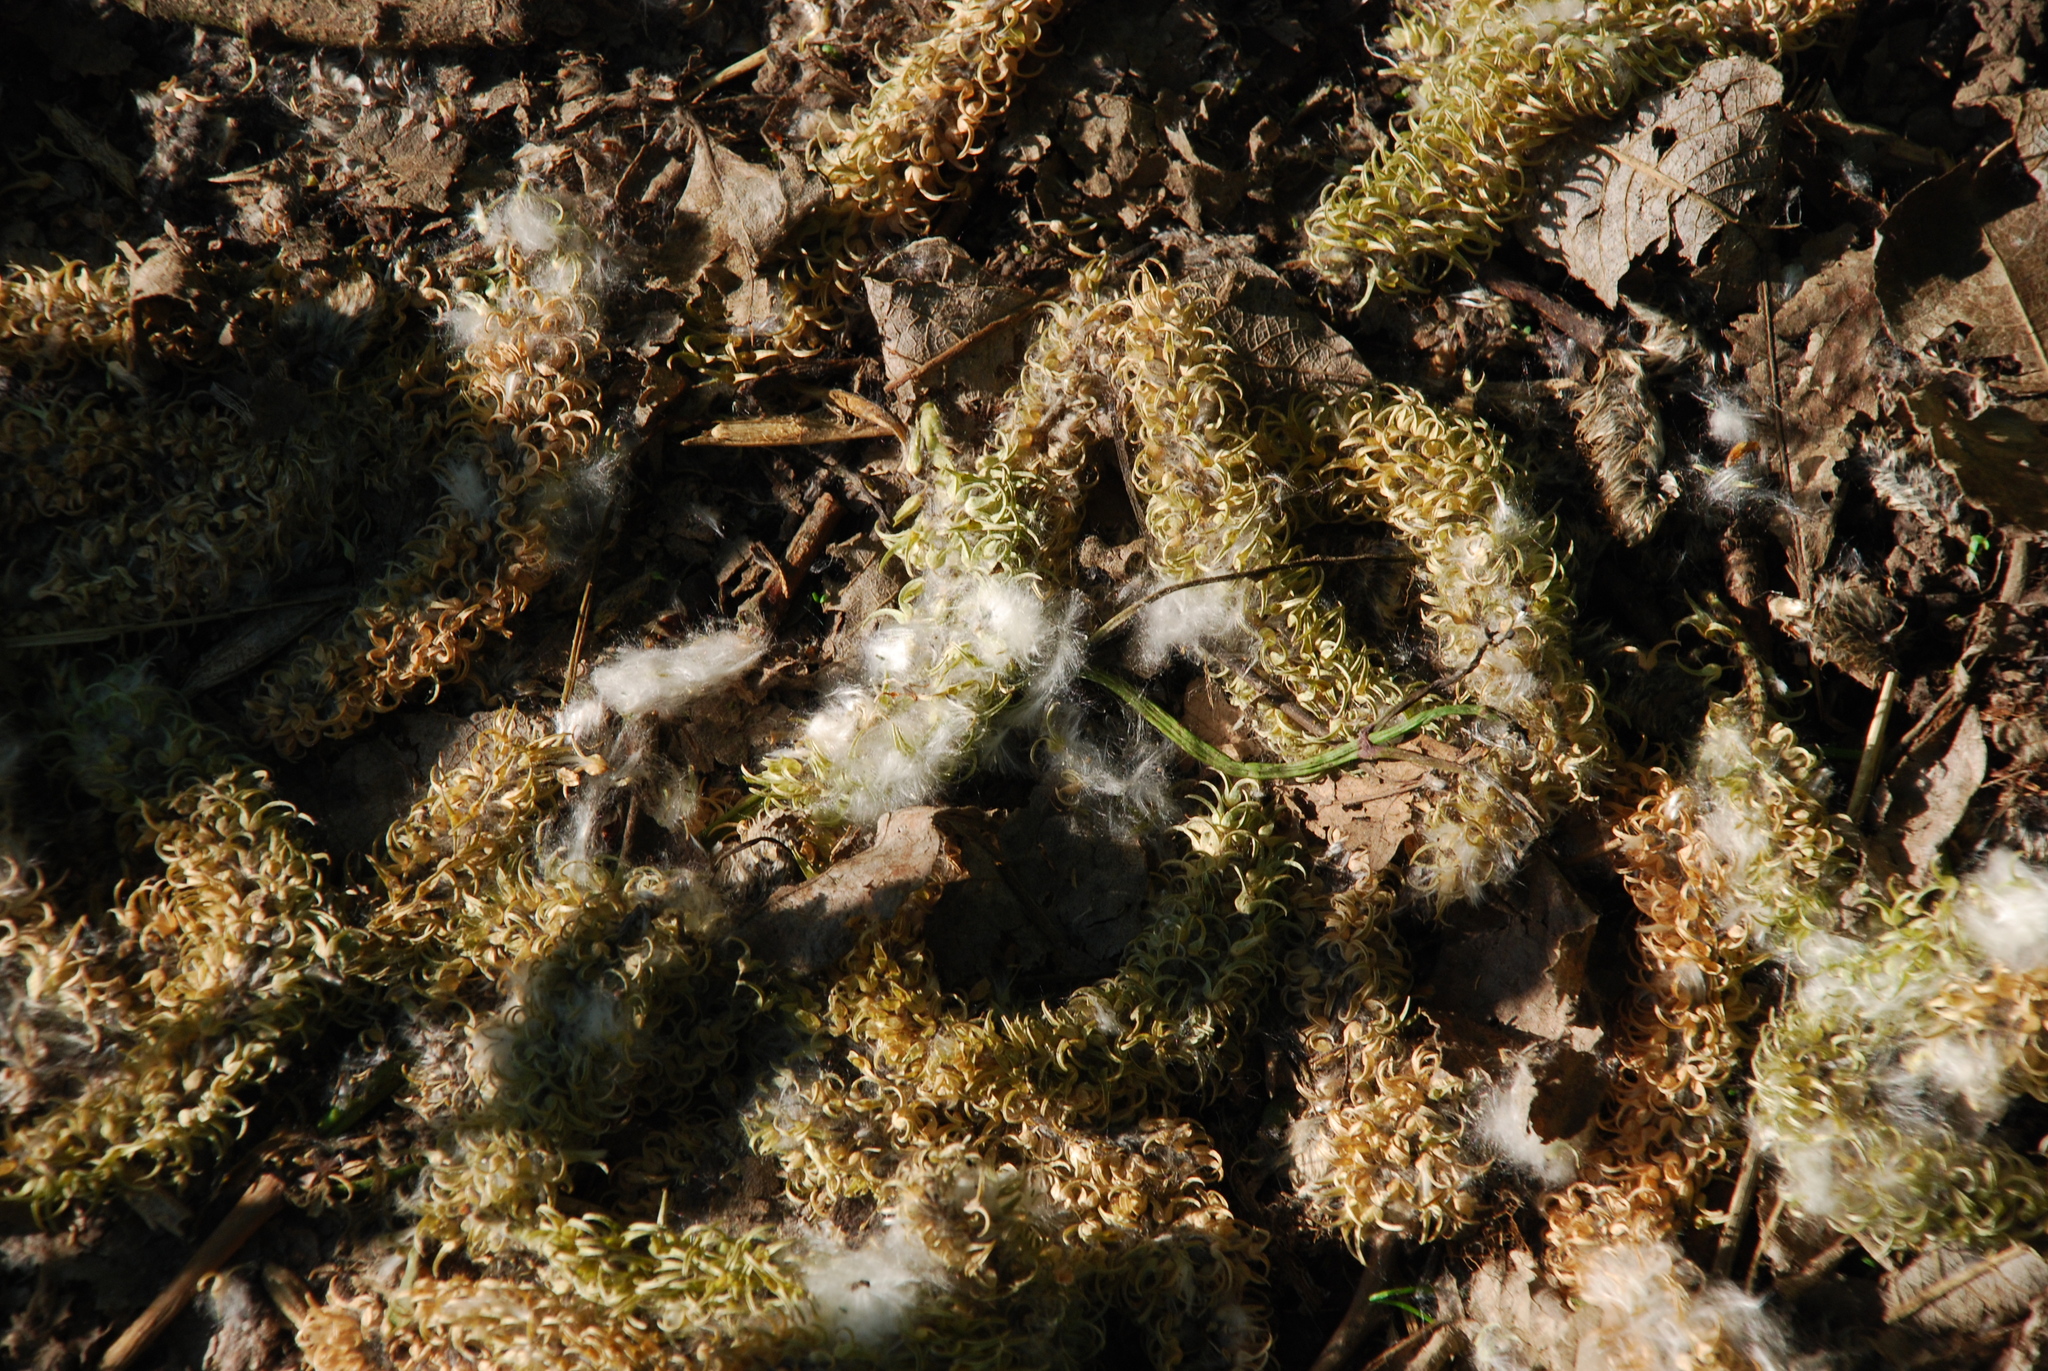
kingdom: Plantae
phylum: Tracheophyta
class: Magnoliopsida
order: Malpighiales
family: Salicaceae
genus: Salix
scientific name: Salix caprea
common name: Goat willow
